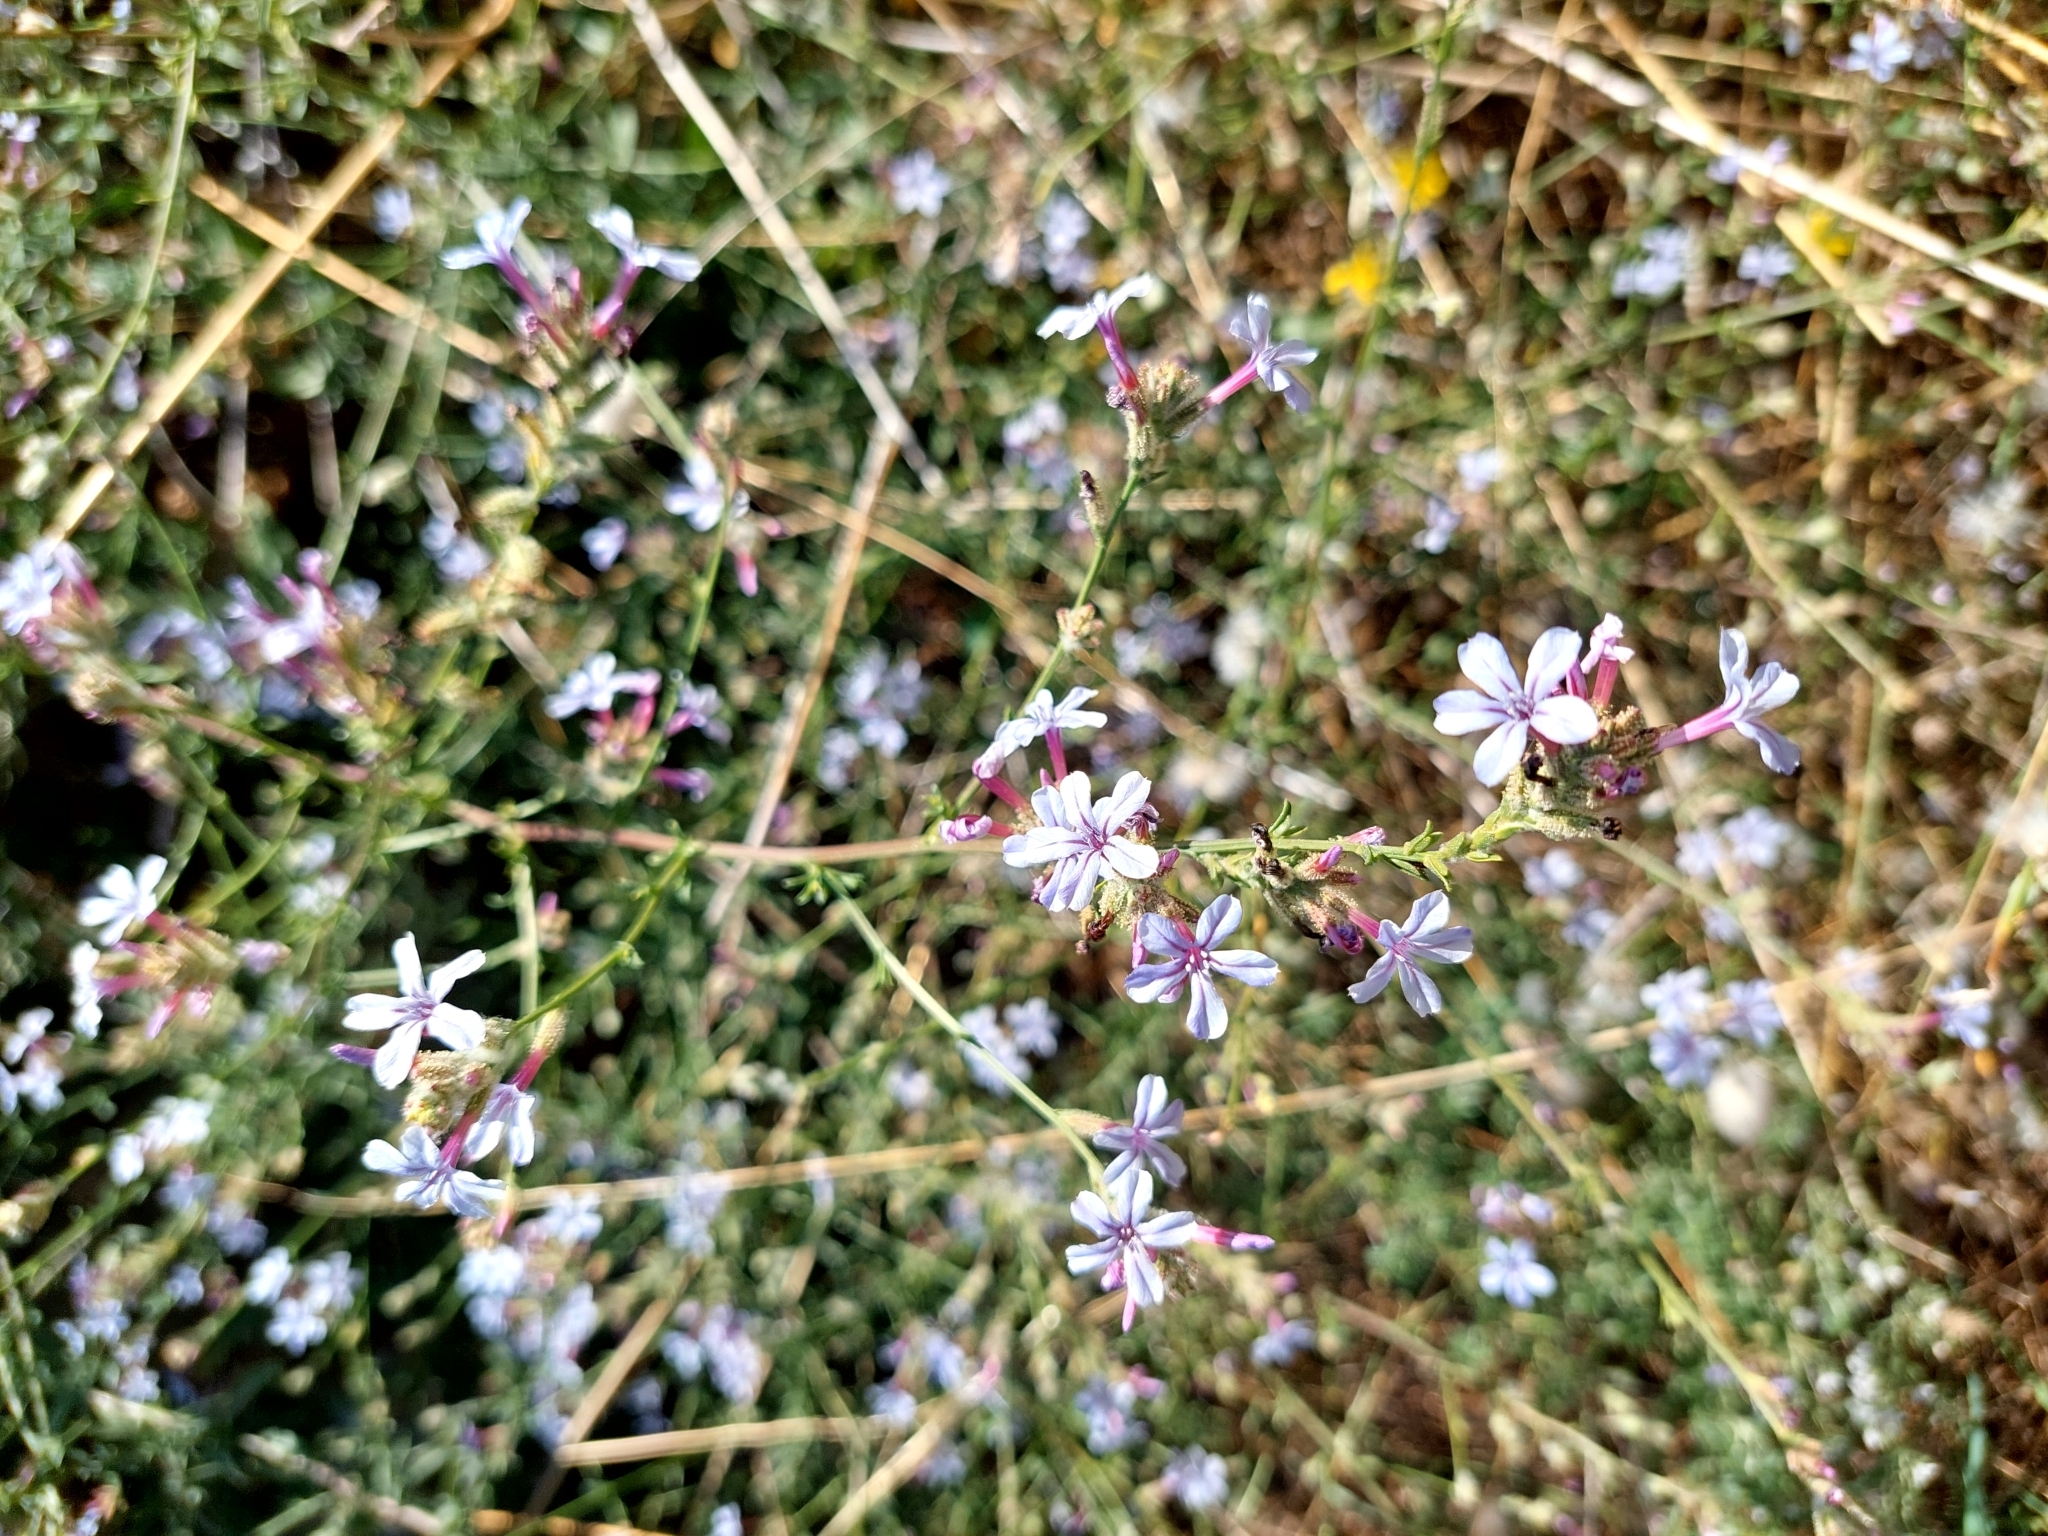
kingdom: Plantae
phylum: Tracheophyta
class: Magnoliopsida
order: Caryophyllales
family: Plumbaginaceae
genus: Plumbago
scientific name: Plumbago europaea
